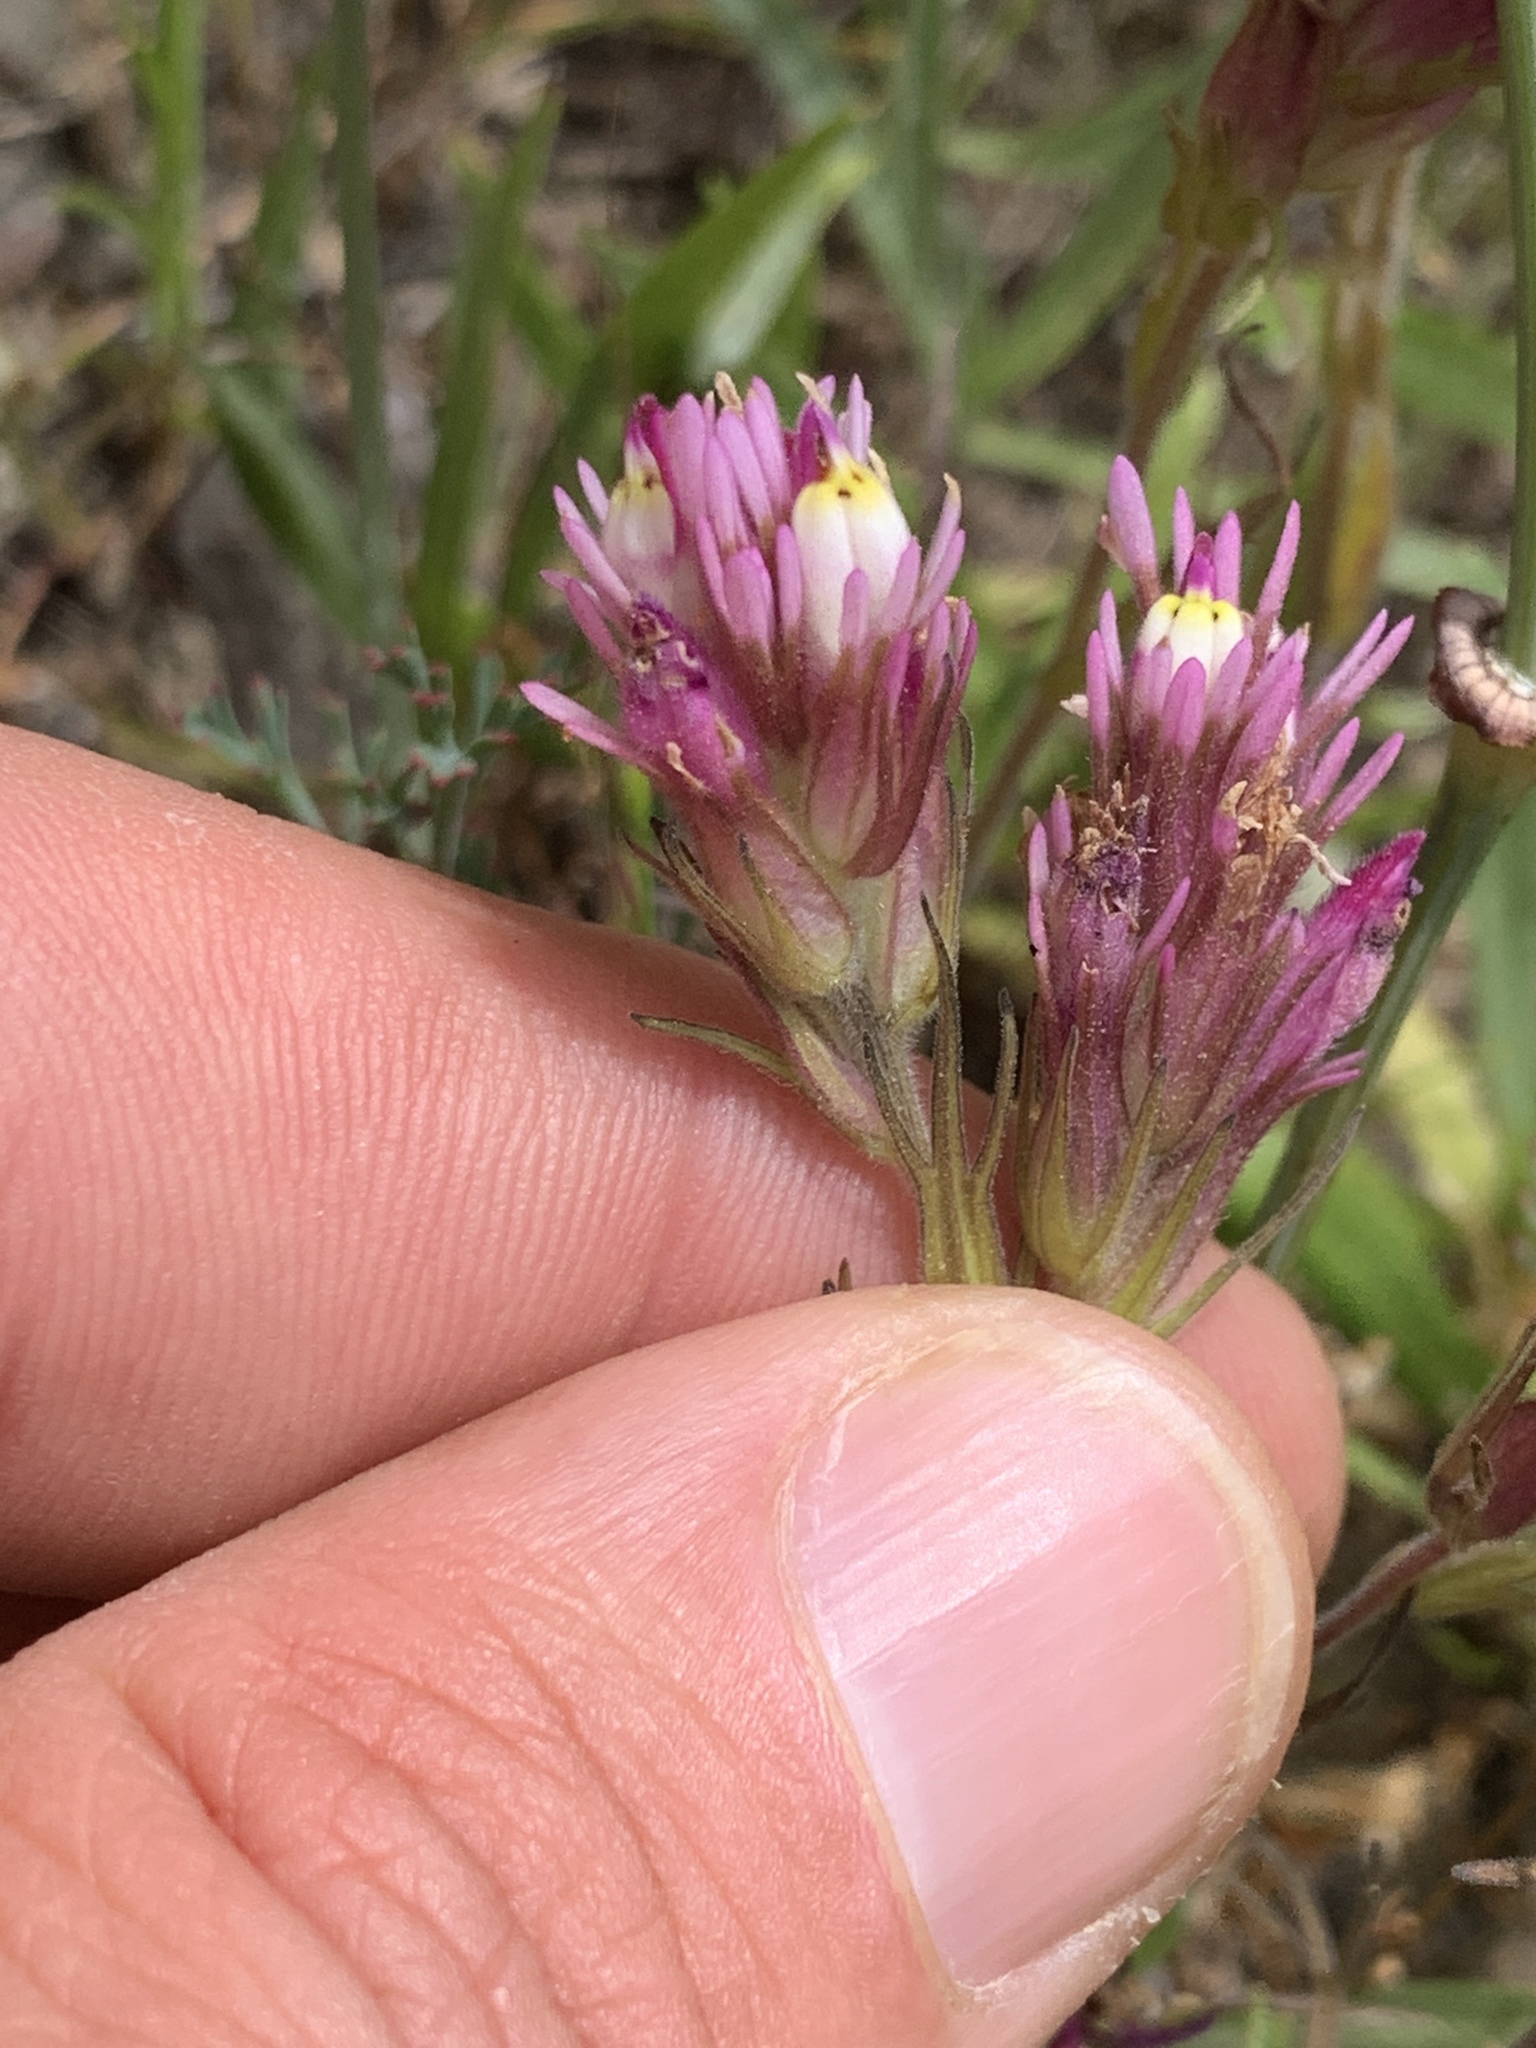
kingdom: Plantae
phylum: Tracheophyta
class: Magnoliopsida
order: Lamiales
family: Orobanchaceae
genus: Castilleja
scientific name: Castilleja densiflora
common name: Dense-flower indian paintbrush
